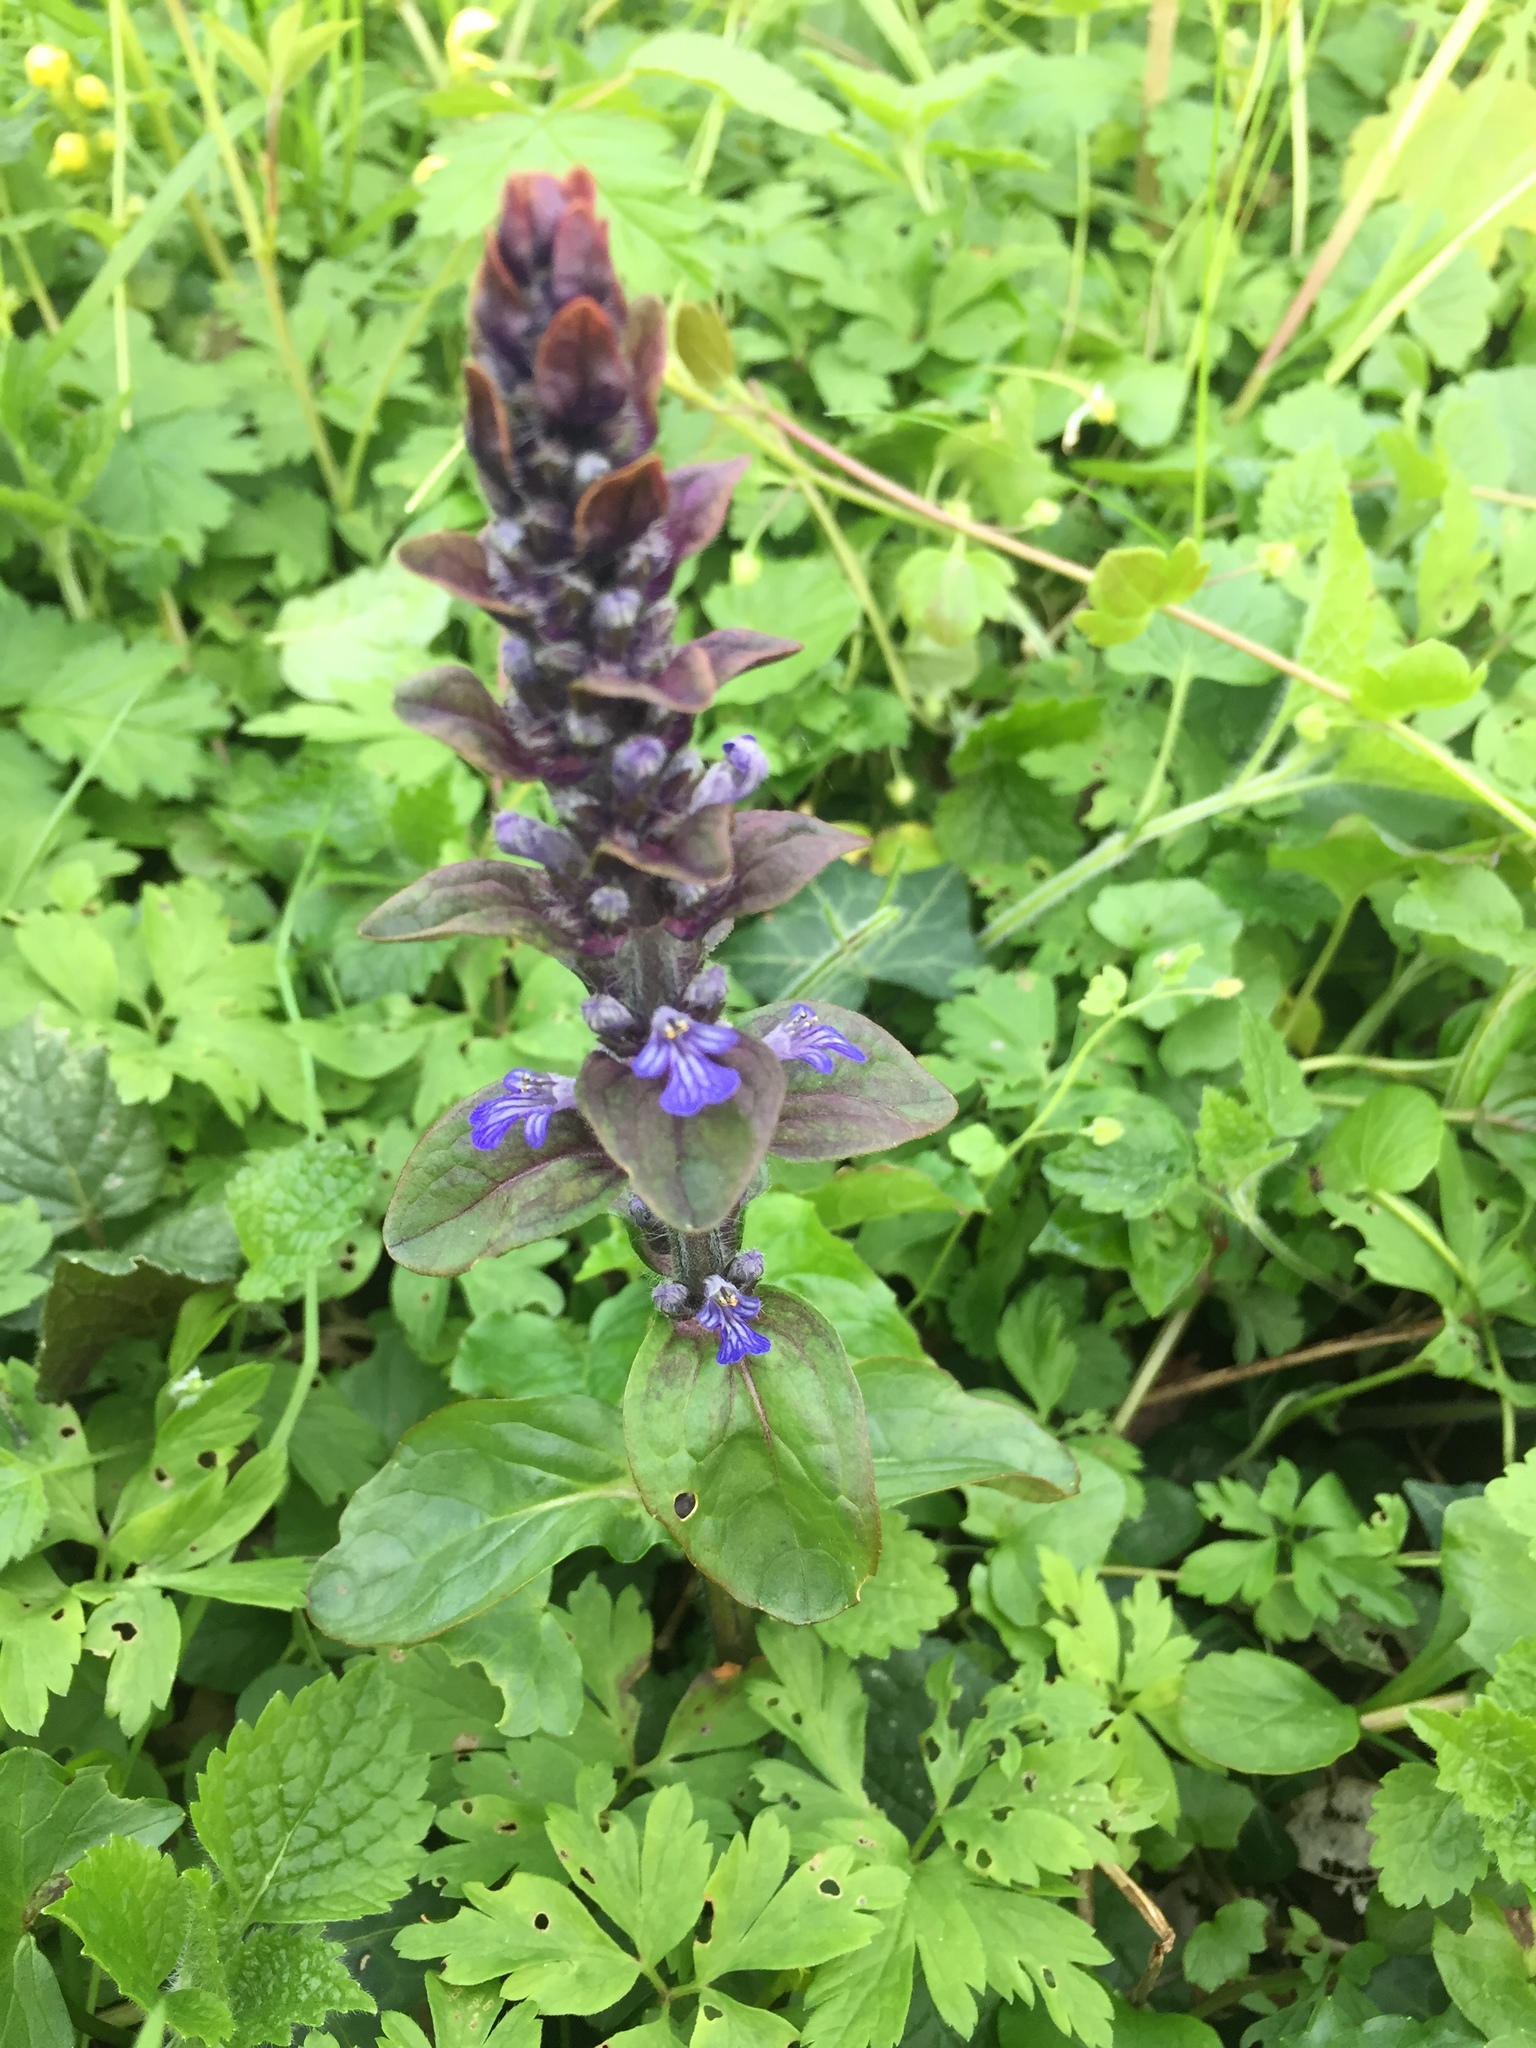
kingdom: Plantae
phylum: Tracheophyta
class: Magnoliopsida
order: Lamiales
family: Lamiaceae
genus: Ajuga
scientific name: Ajuga reptans
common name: Bugle
